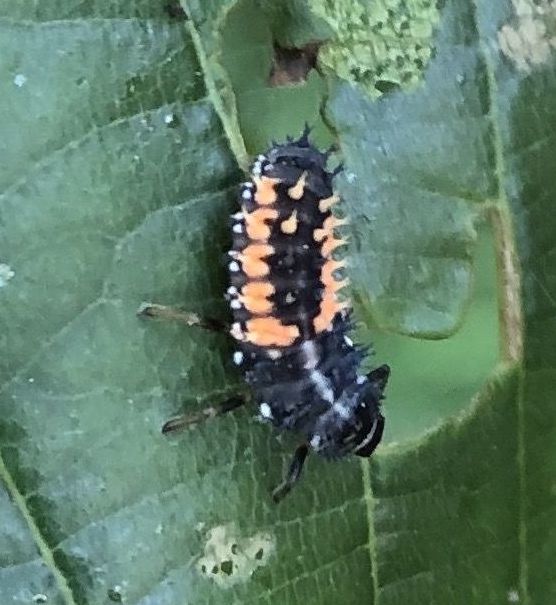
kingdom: Animalia
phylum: Arthropoda
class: Insecta
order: Coleoptera
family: Coccinellidae
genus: Harmonia
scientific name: Harmonia axyridis
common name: Harlequin ladybird
